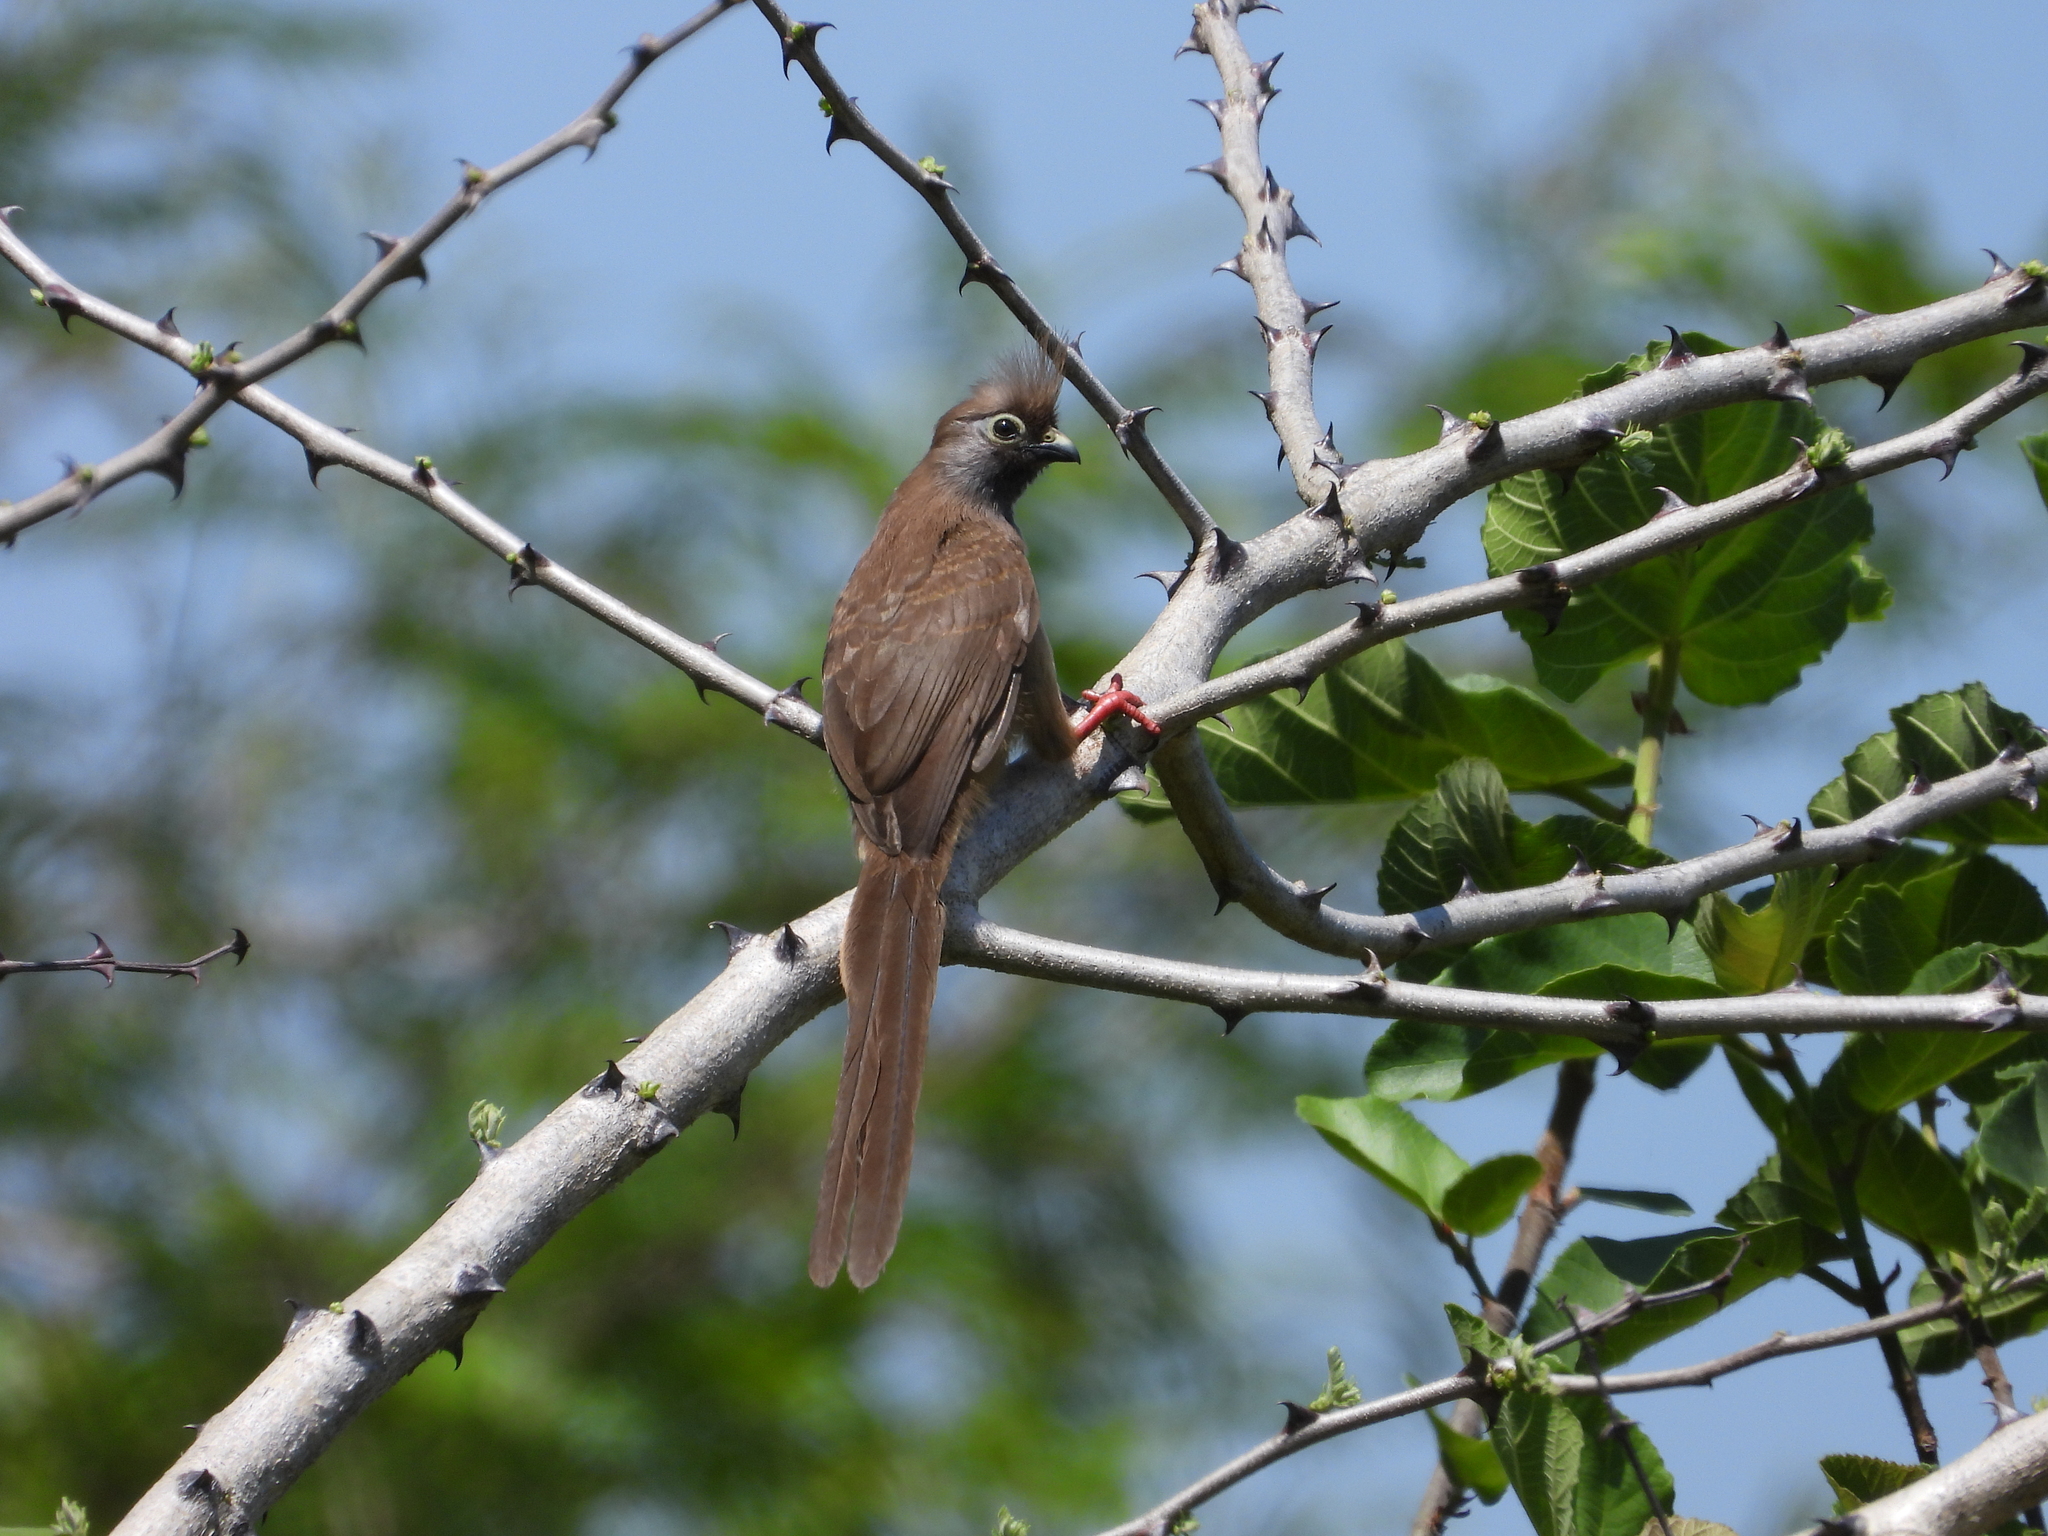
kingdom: Animalia
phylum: Chordata
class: Aves
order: Coliiformes
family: Coliidae
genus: Colius
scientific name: Colius striatus
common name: Speckled mousebird
